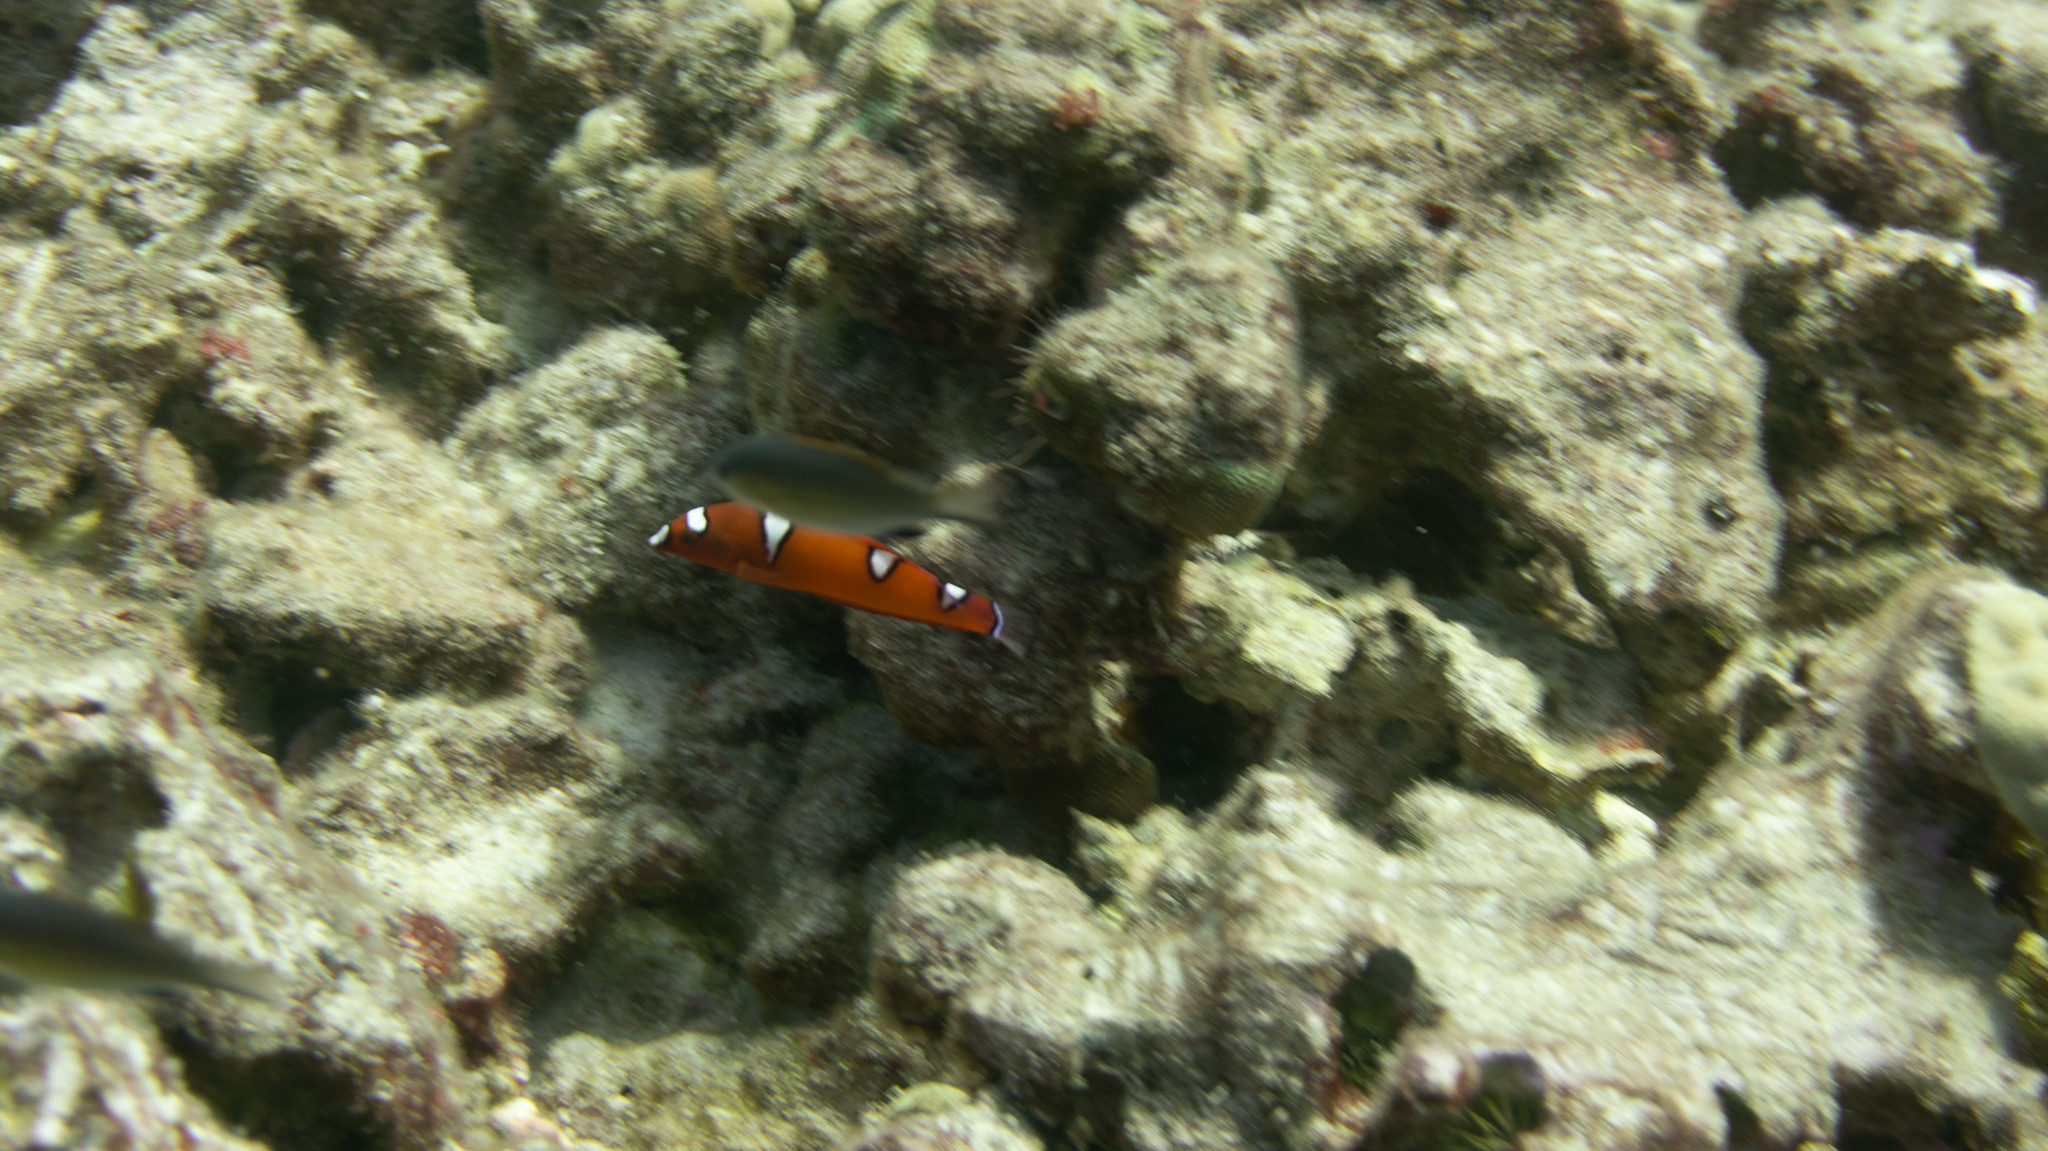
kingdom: Animalia
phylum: Chordata
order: Perciformes
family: Labridae
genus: Coris
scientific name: Coris gaimard
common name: Yellowtail coris
